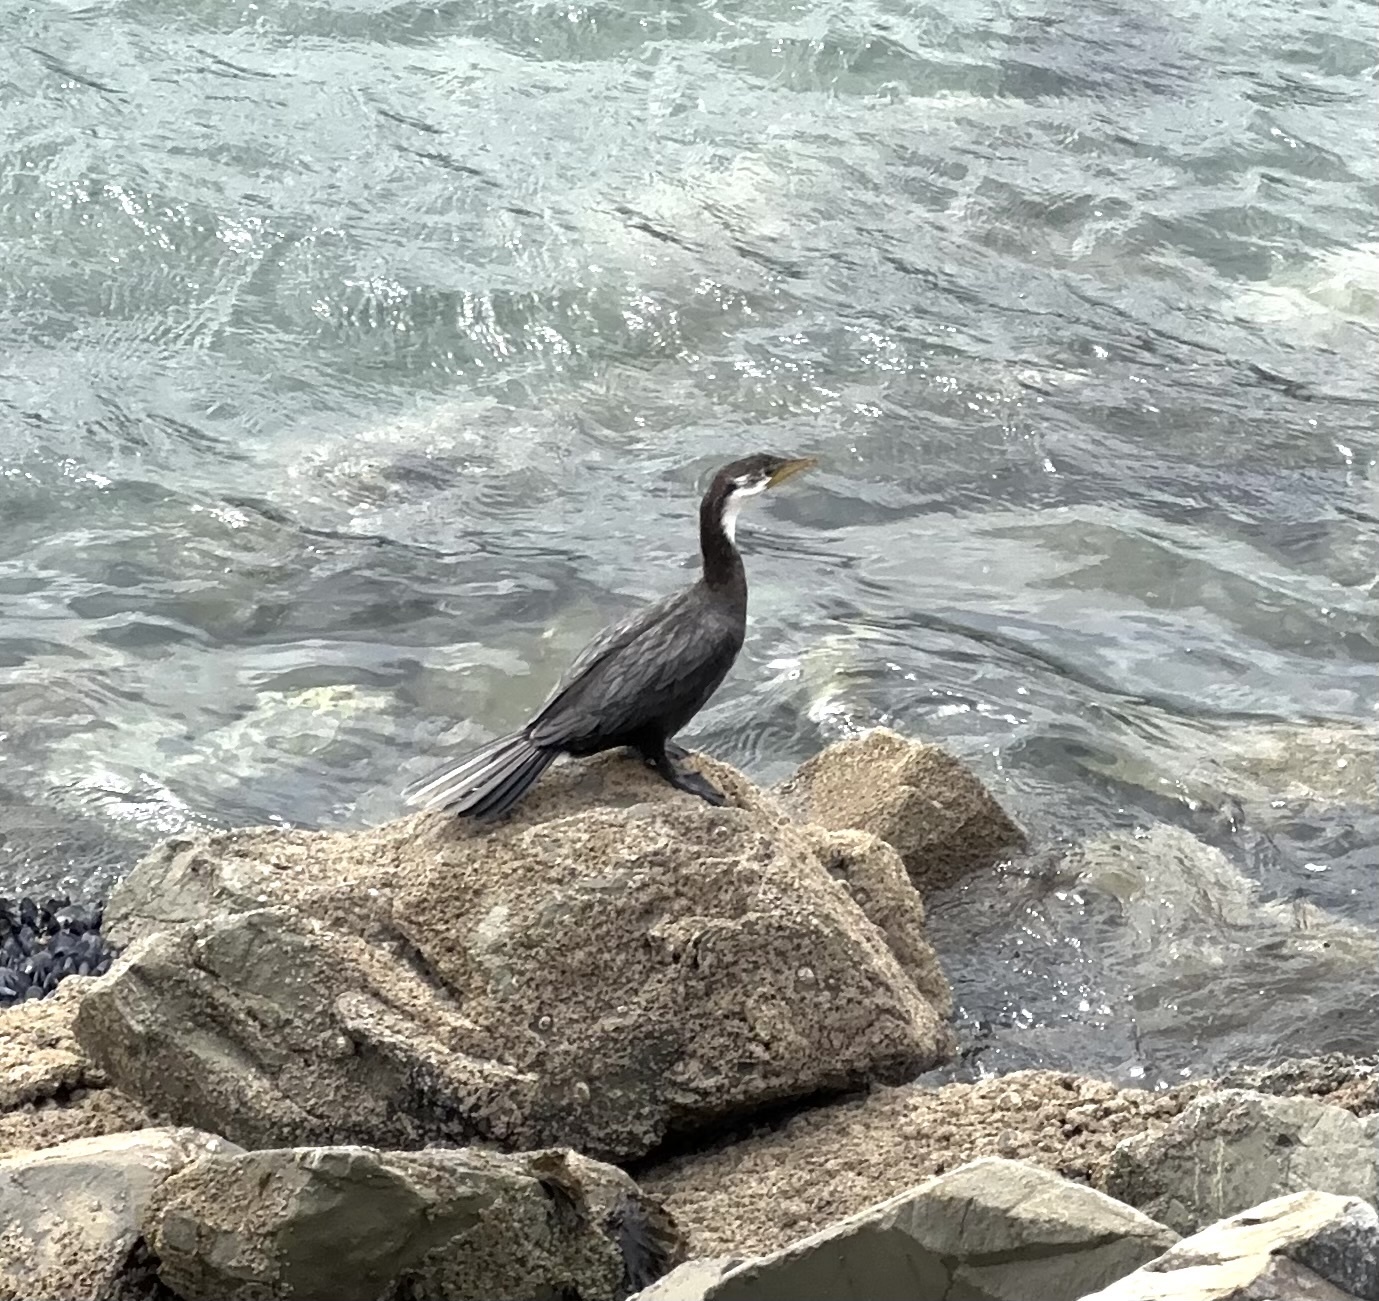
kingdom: Animalia
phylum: Chordata
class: Aves
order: Suliformes
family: Phalacrocoracidae
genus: Microcarbo
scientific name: Microcarbo melanoleucos
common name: Little pied cormorant
